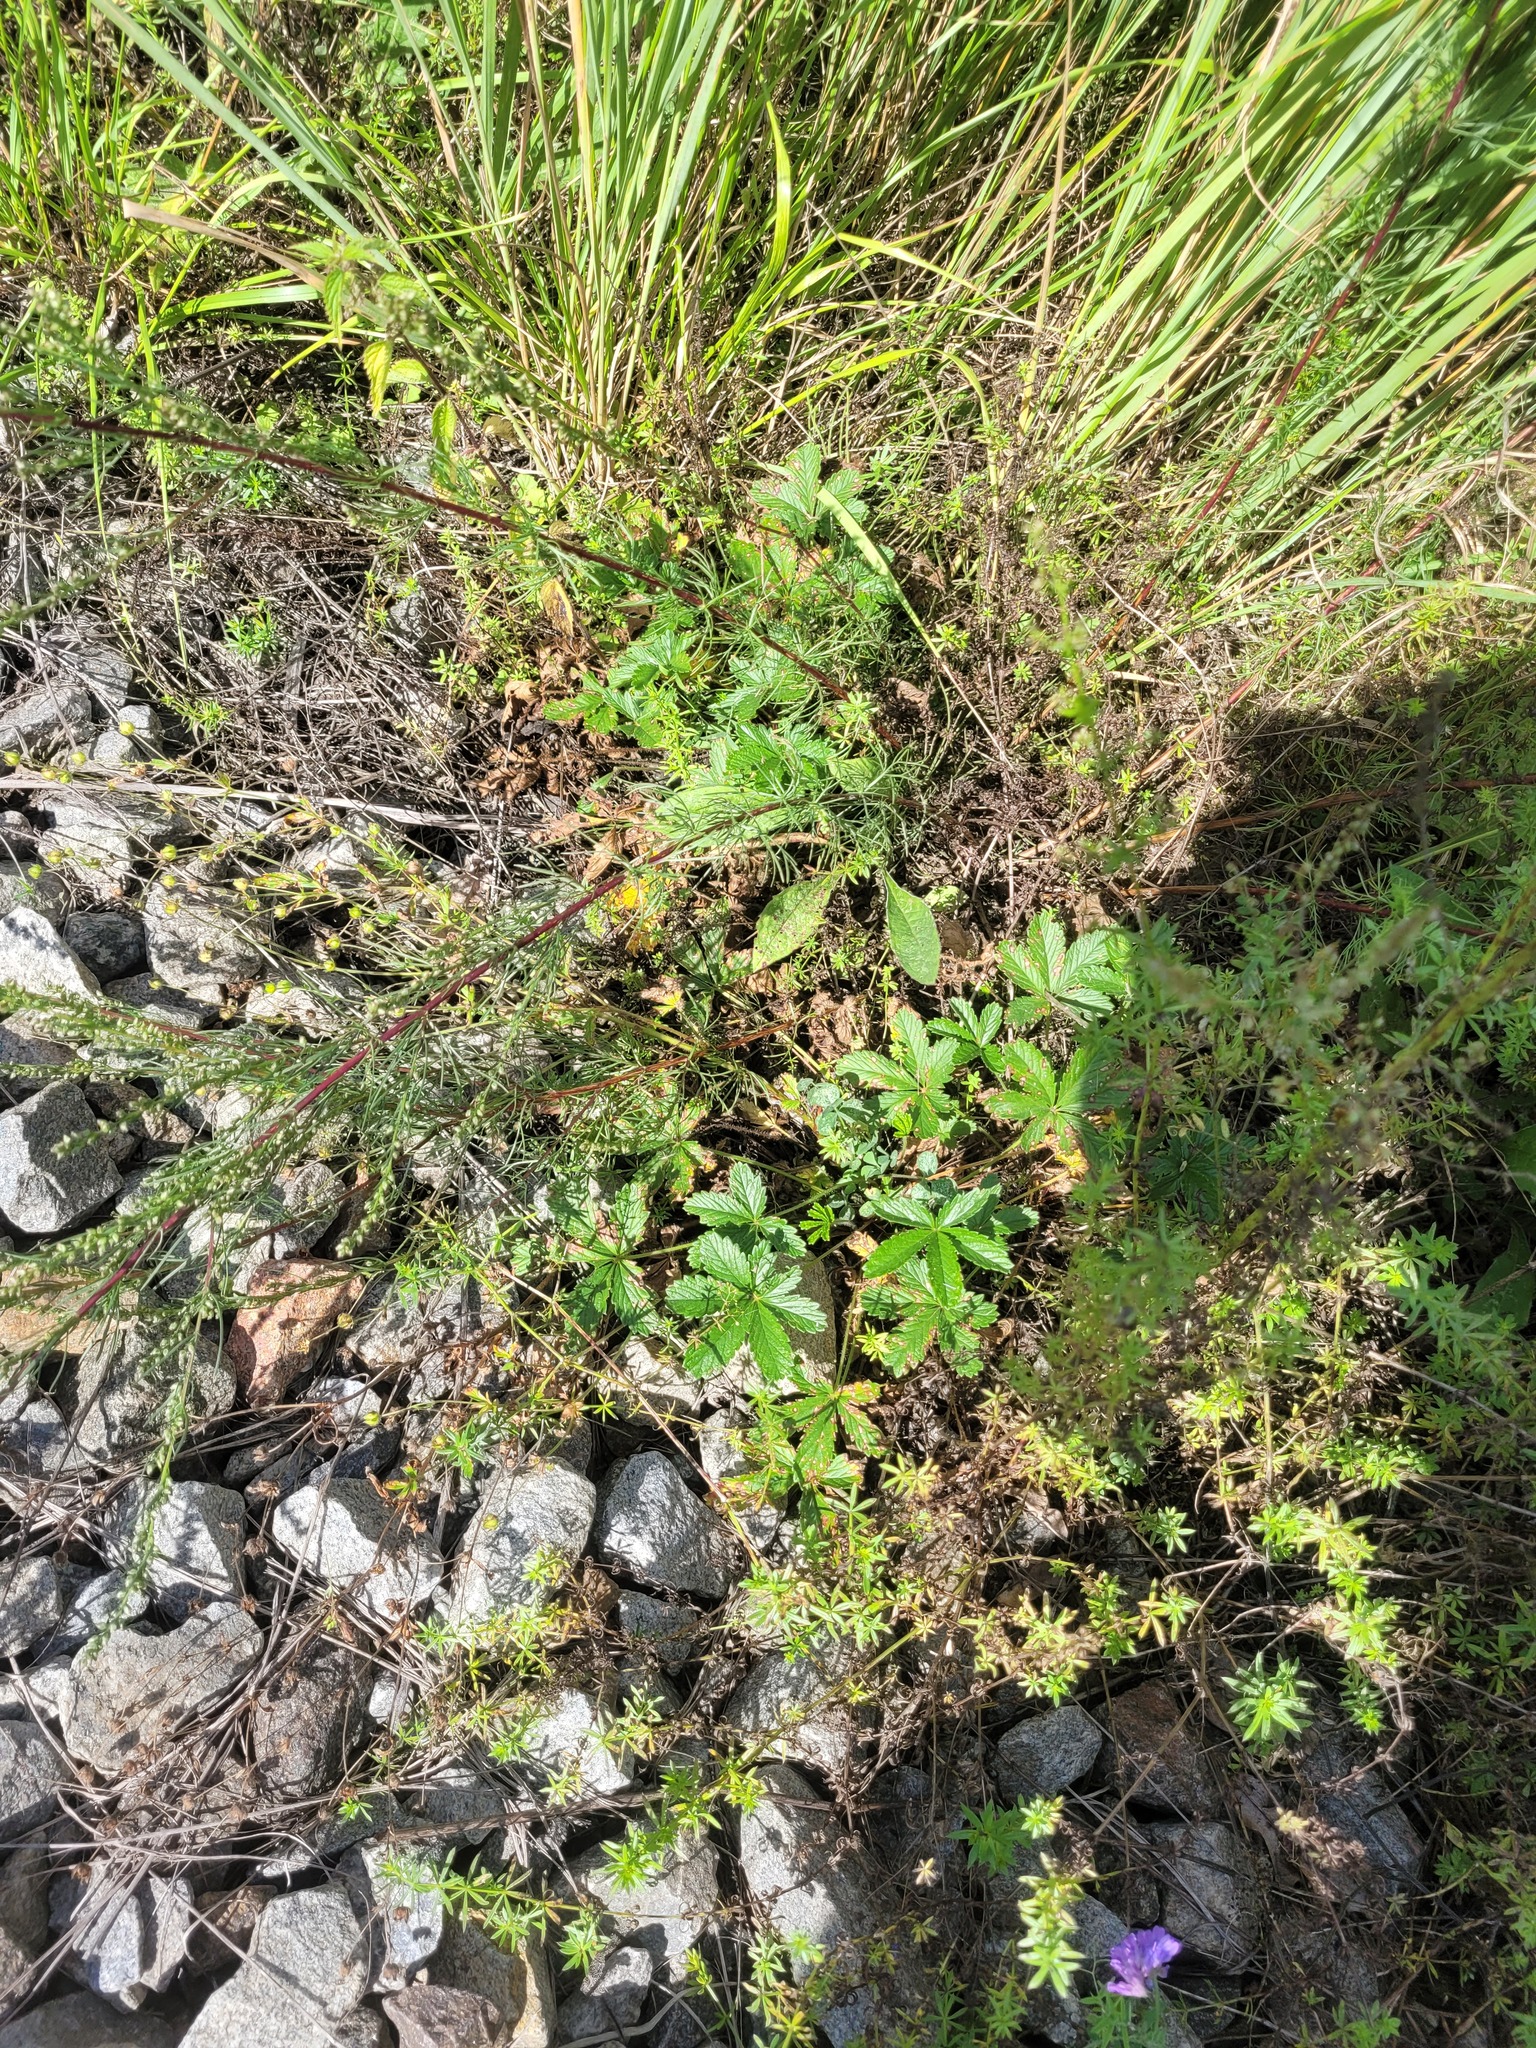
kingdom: Plantae
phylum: Tracheophyta
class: Magnoliopsida
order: Rosales
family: Rosaceae
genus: Potentilla
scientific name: Potentilla thuringiaca
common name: European cinquefoil
